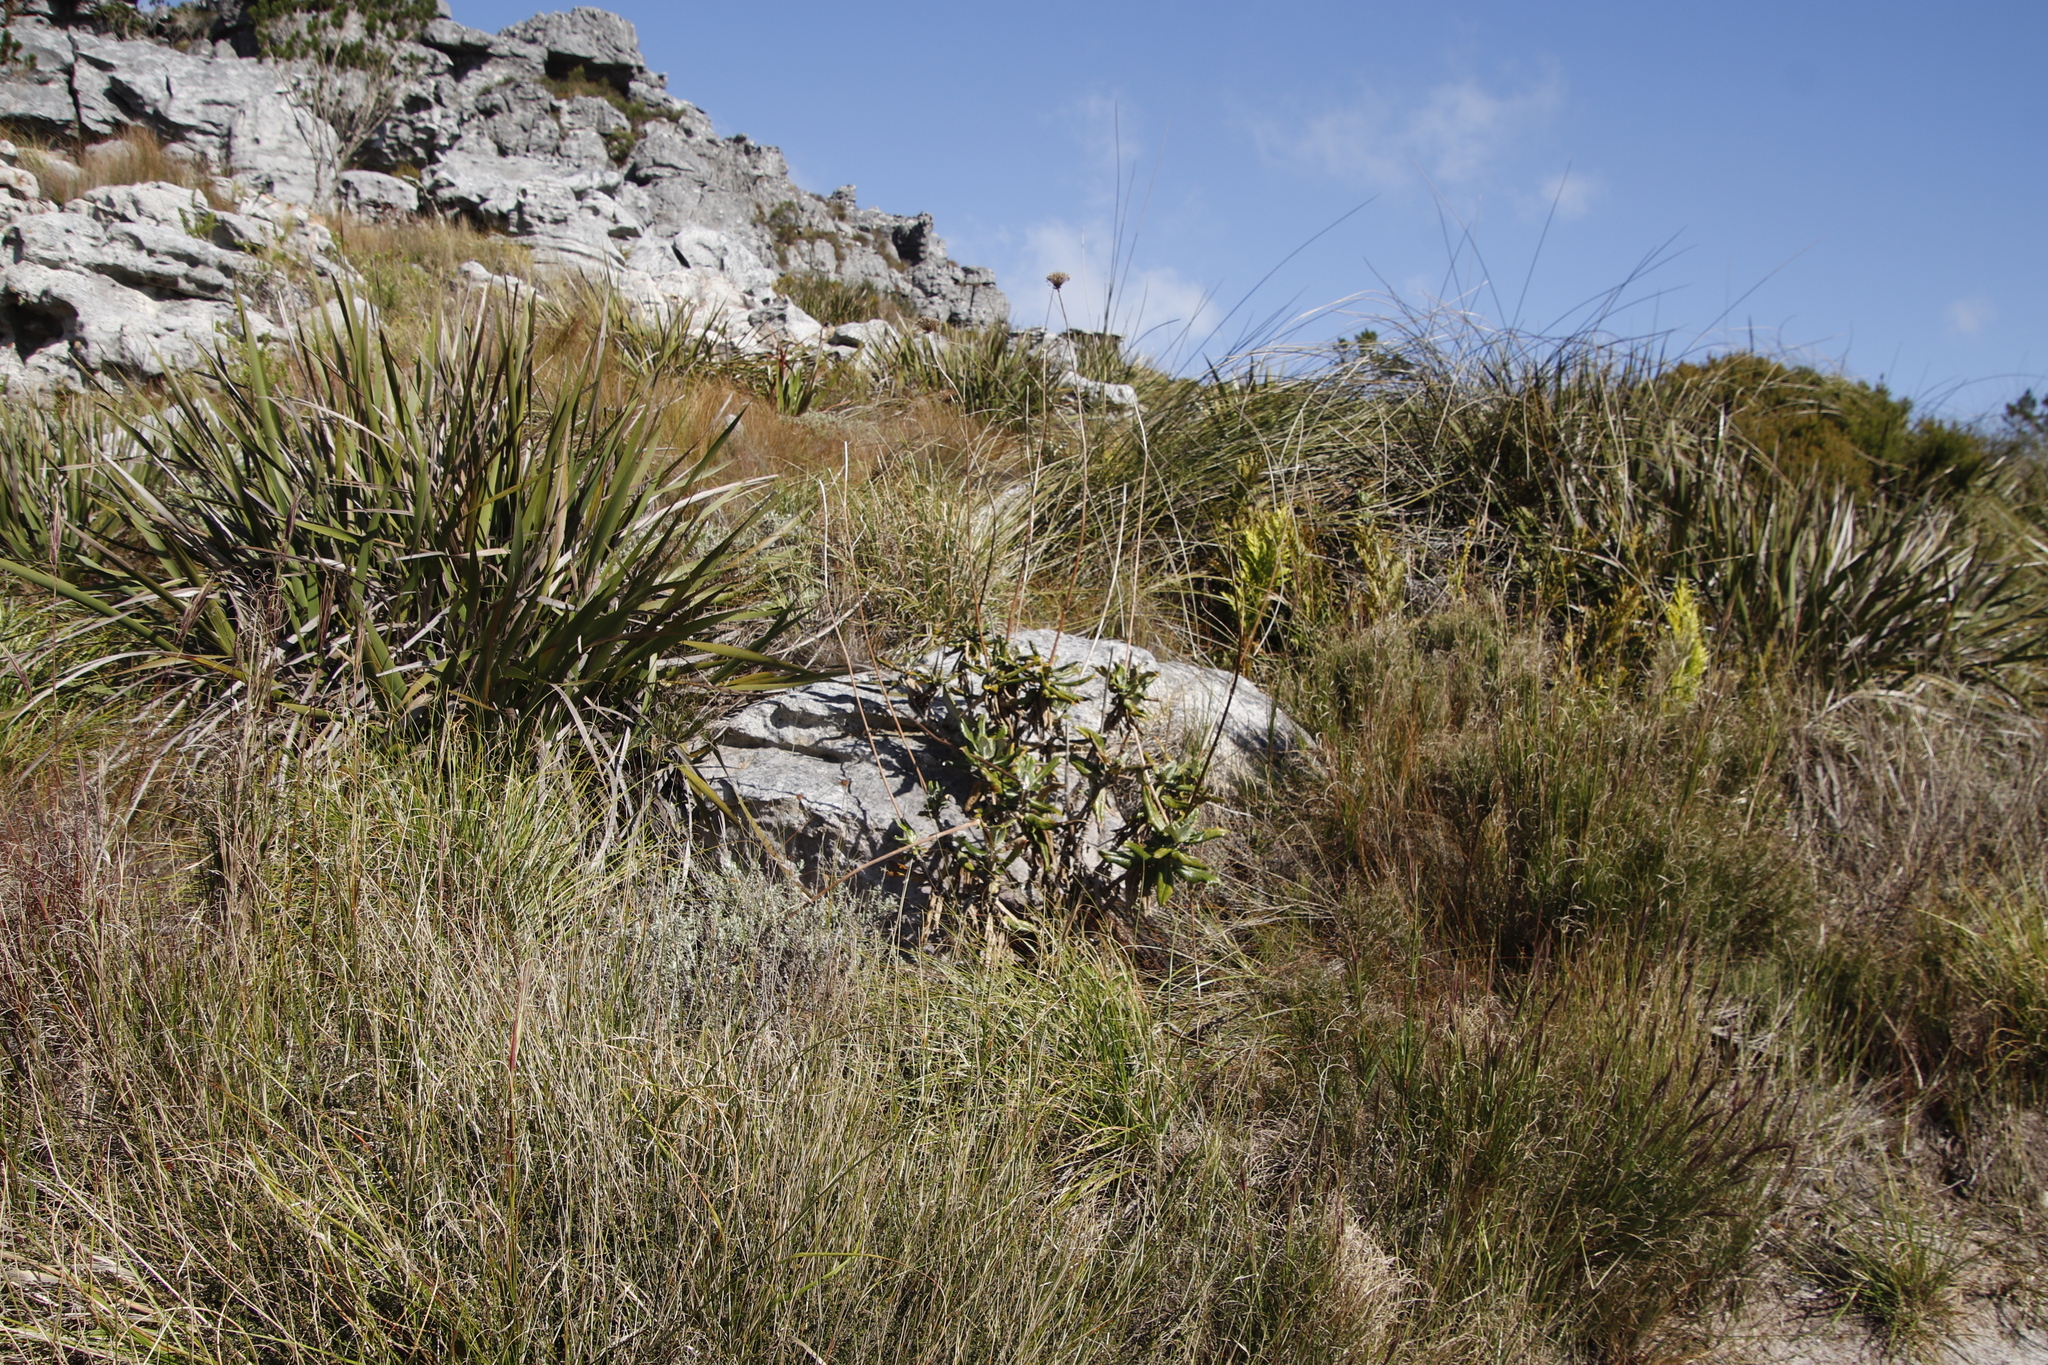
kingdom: Plantae
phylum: Tracheophyta
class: Magnoliopsida
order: Apiales
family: Apiaceae
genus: Hermas
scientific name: Hermas villosa
